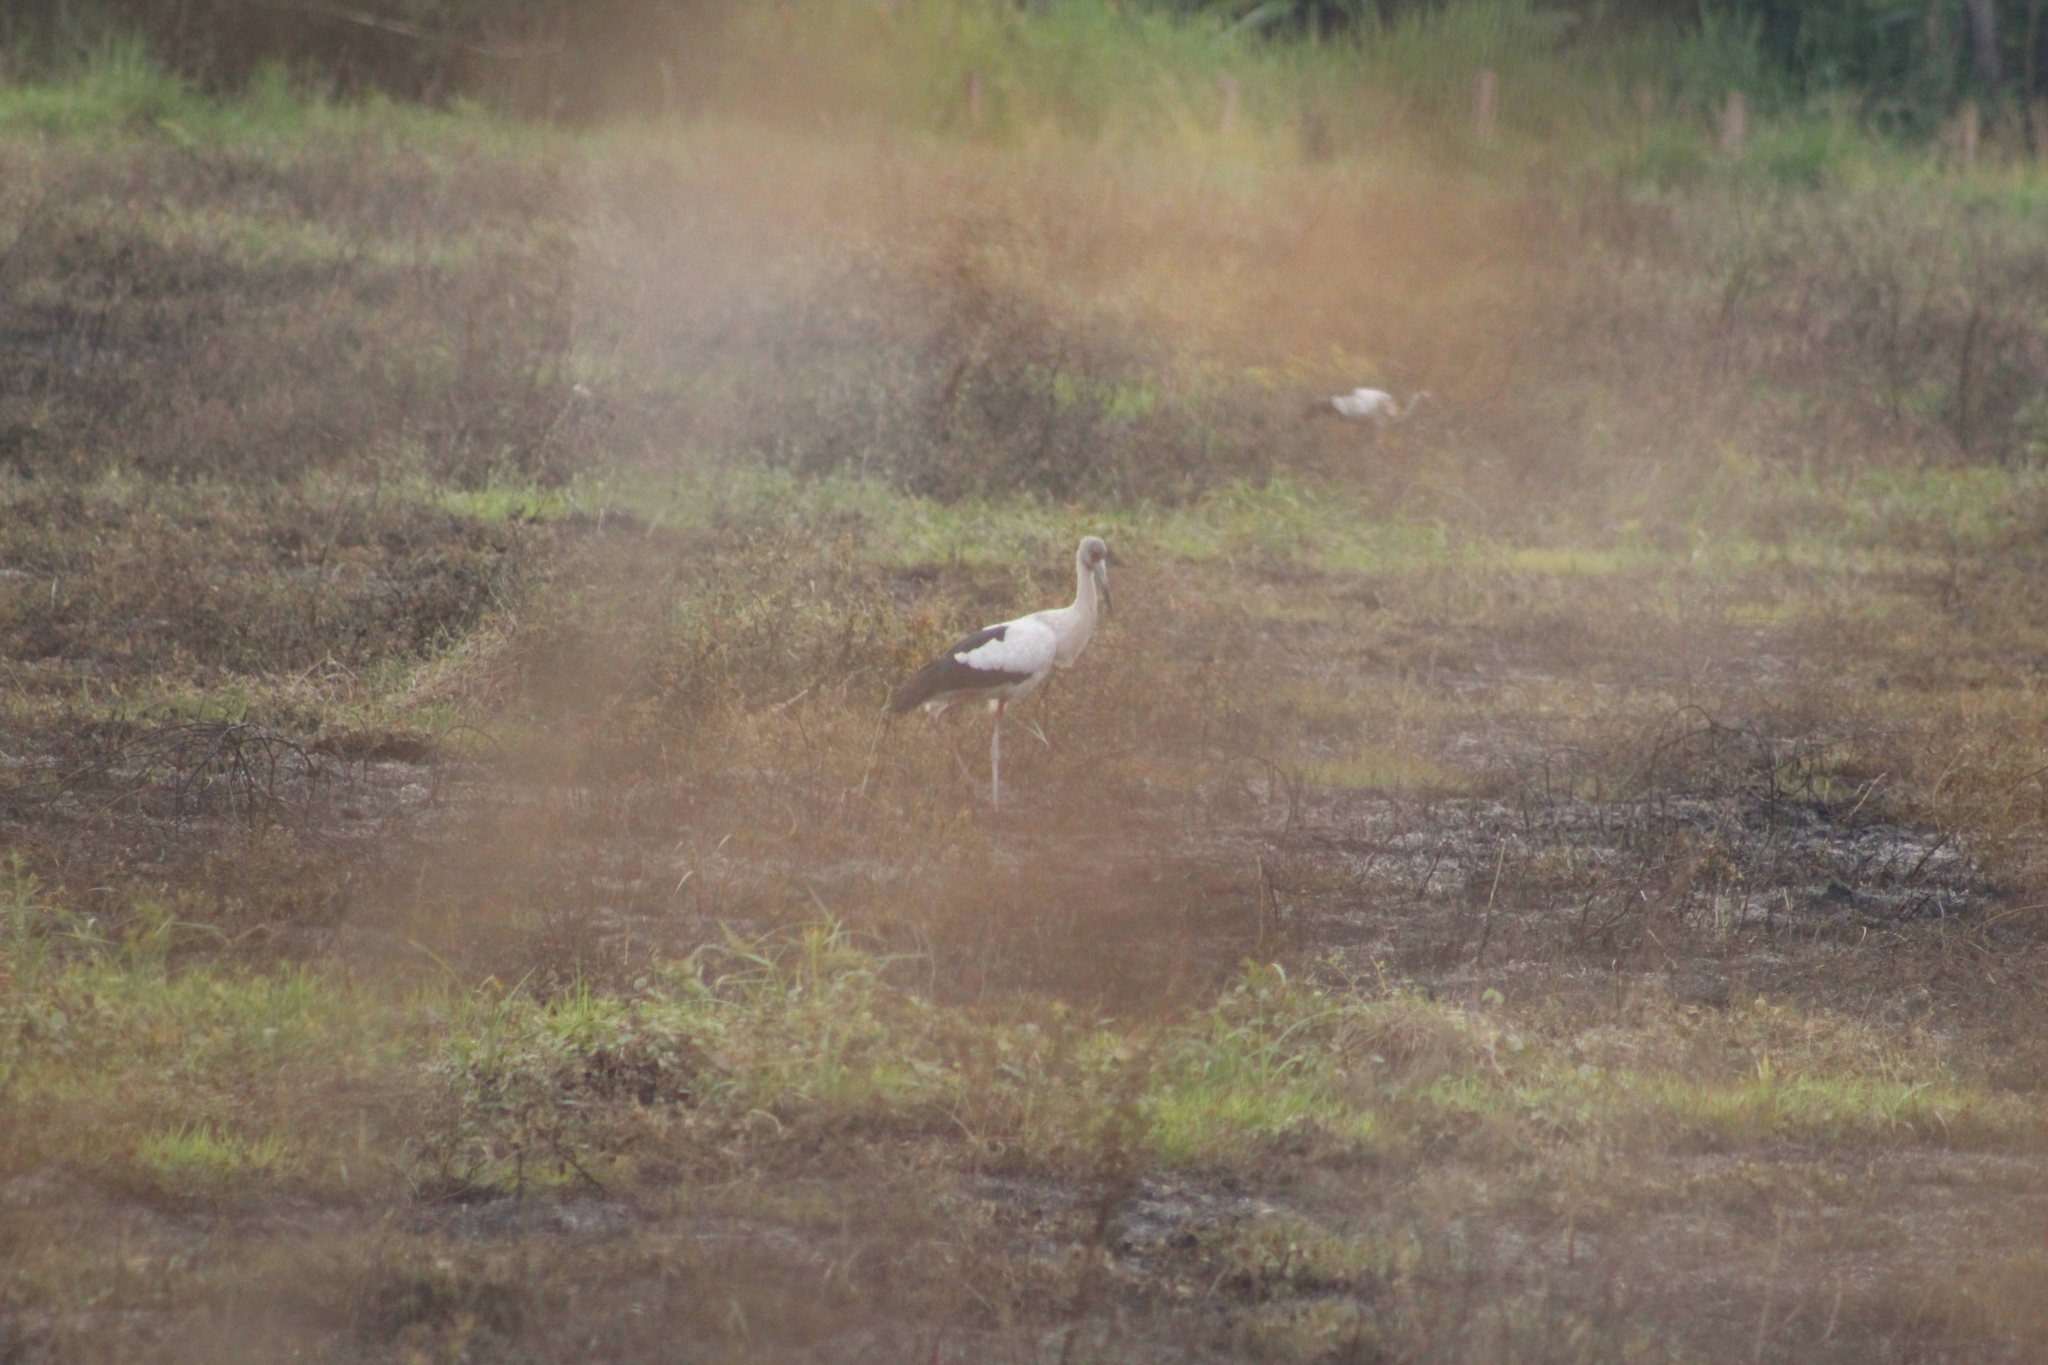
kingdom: Animalia
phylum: Chordata
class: Aves
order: Ciconiiformes
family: Ciconiidae
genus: Ciconia
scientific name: Ciconia maguari
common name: Maguari stork
